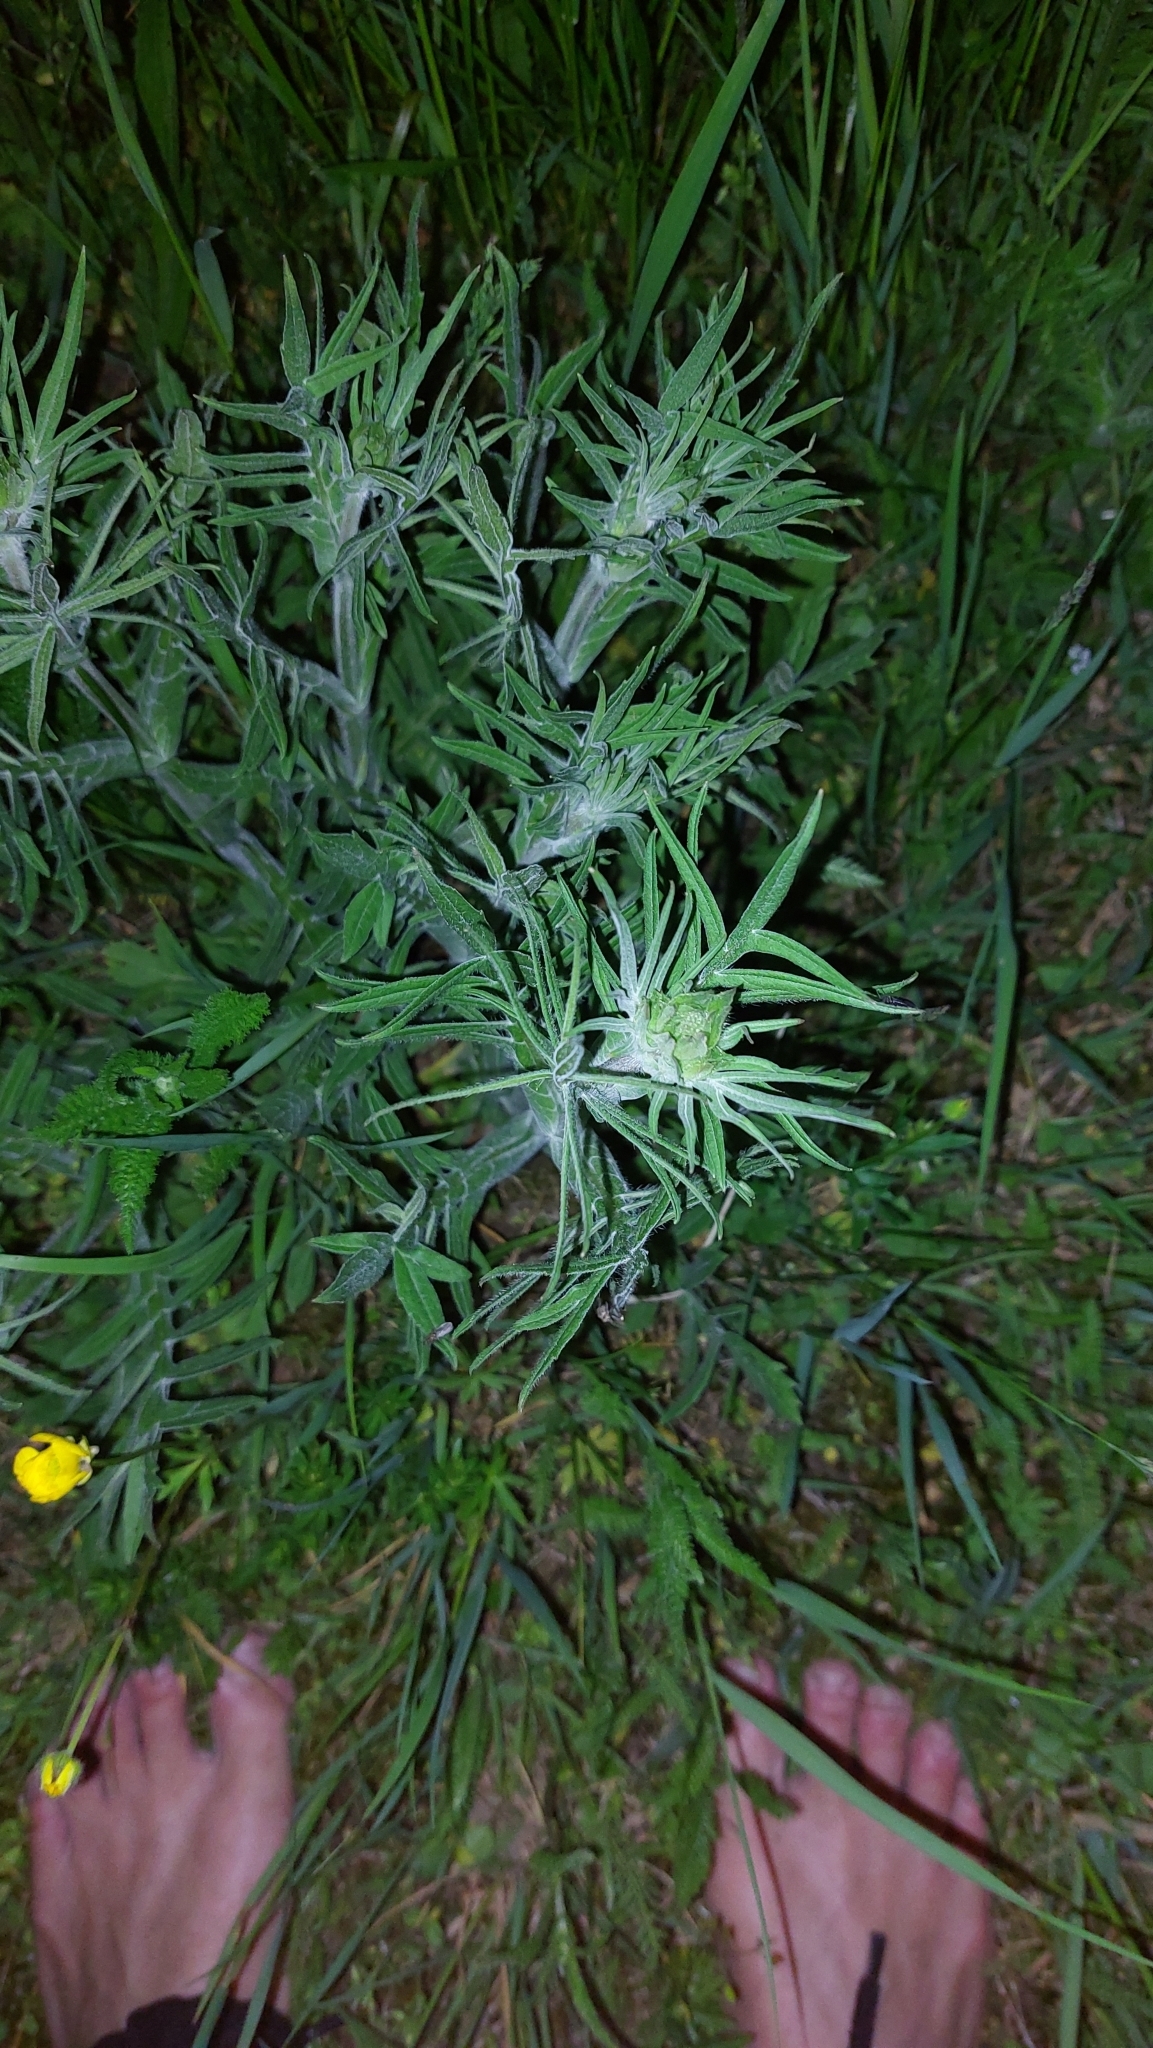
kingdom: Plantae
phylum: Tracheophyta
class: Magnoliopsida
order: Dipsacales
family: Caprifoliaceae
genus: Knautia
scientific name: Knautia arvensis
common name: Field scabiosa
